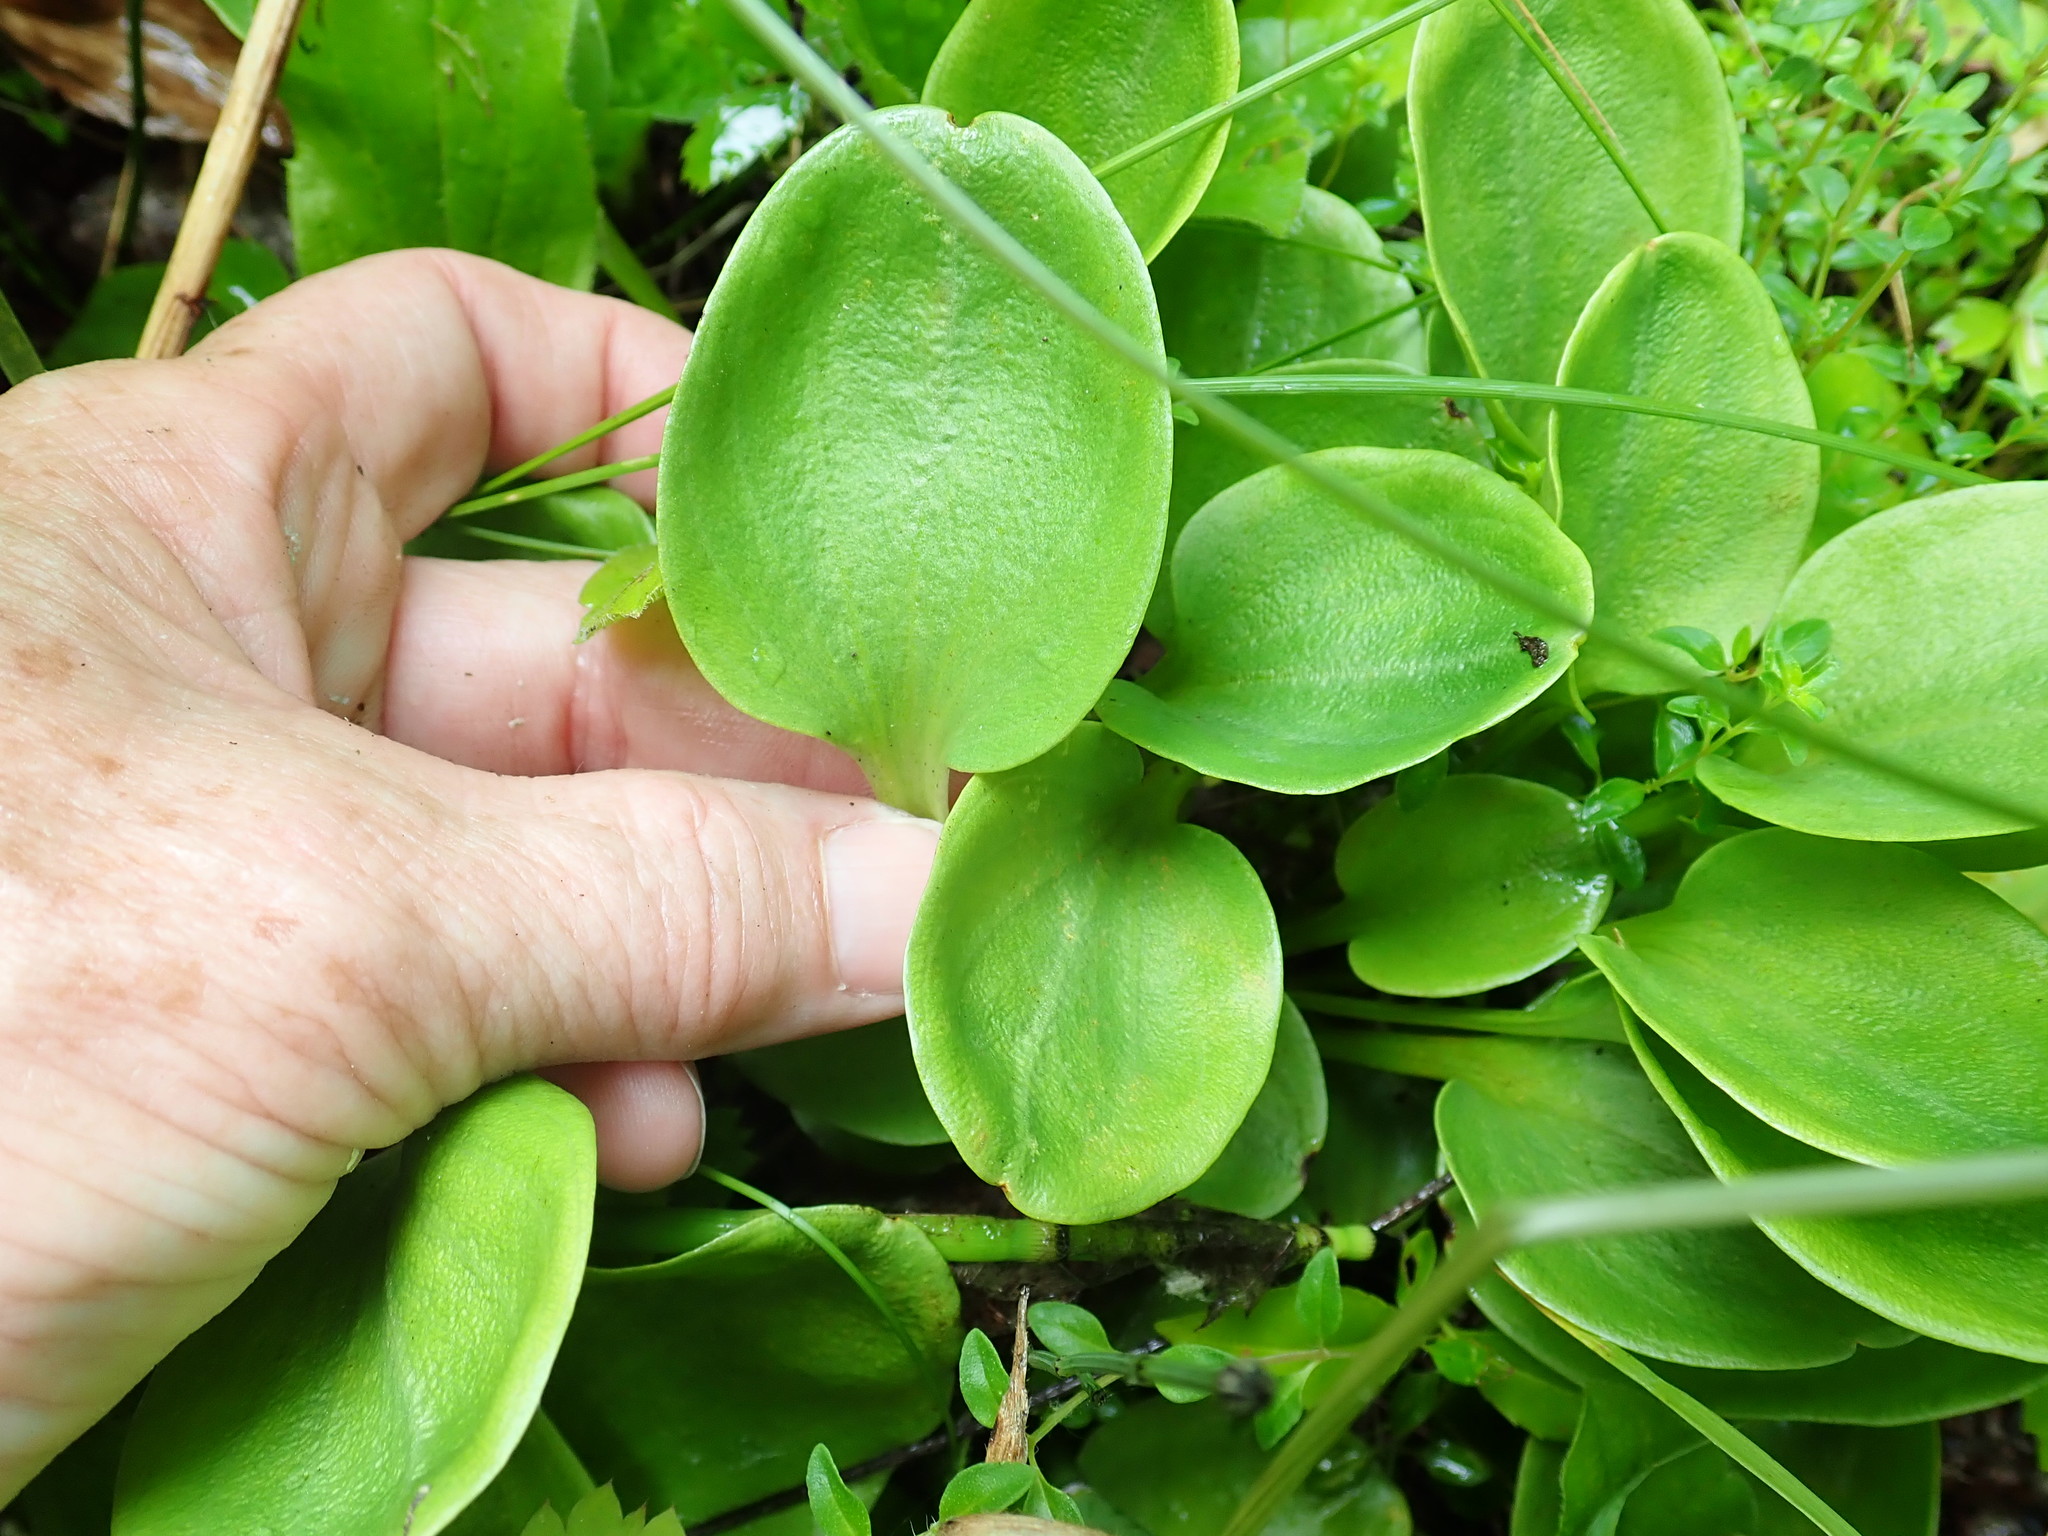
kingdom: Plantae
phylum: Tracheophyta
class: Magnoliopsida
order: Celastrales
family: Parnassiaceae
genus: Parnassia
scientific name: Parnassia glauca
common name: American grass-of-parnassus
